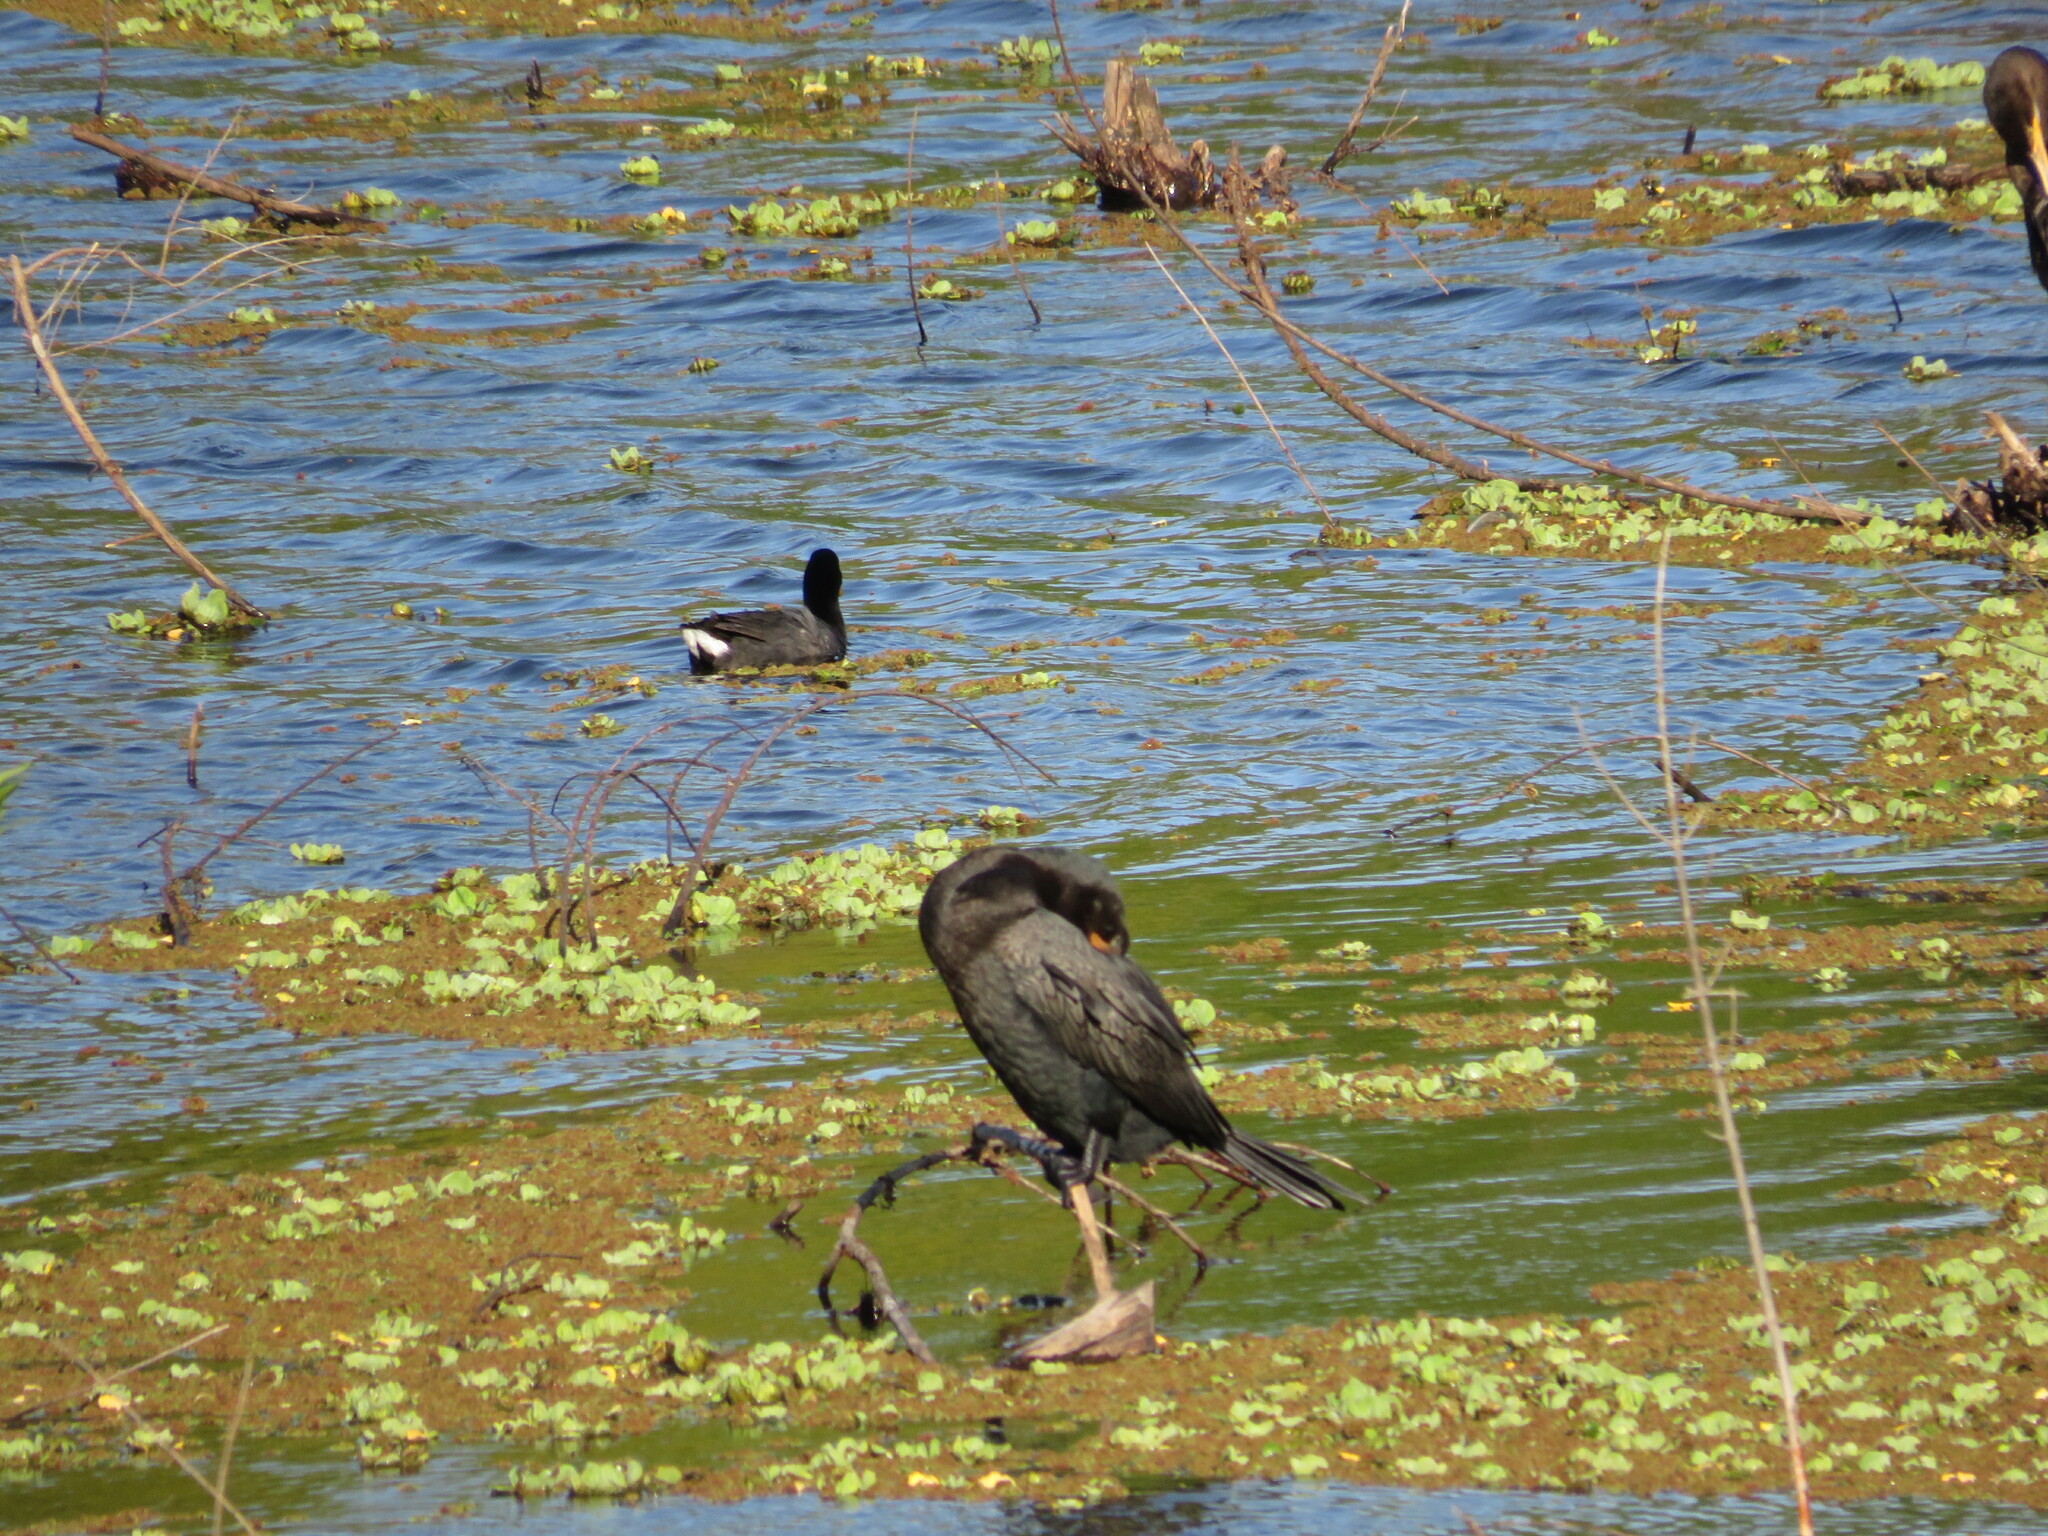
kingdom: Animalia
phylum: Chordata
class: Aves
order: Suliformes
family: Phalacrocoracidae
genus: Phalacrocorax
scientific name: Phalacrocorax brasilianus
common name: Neotropic cormorant
